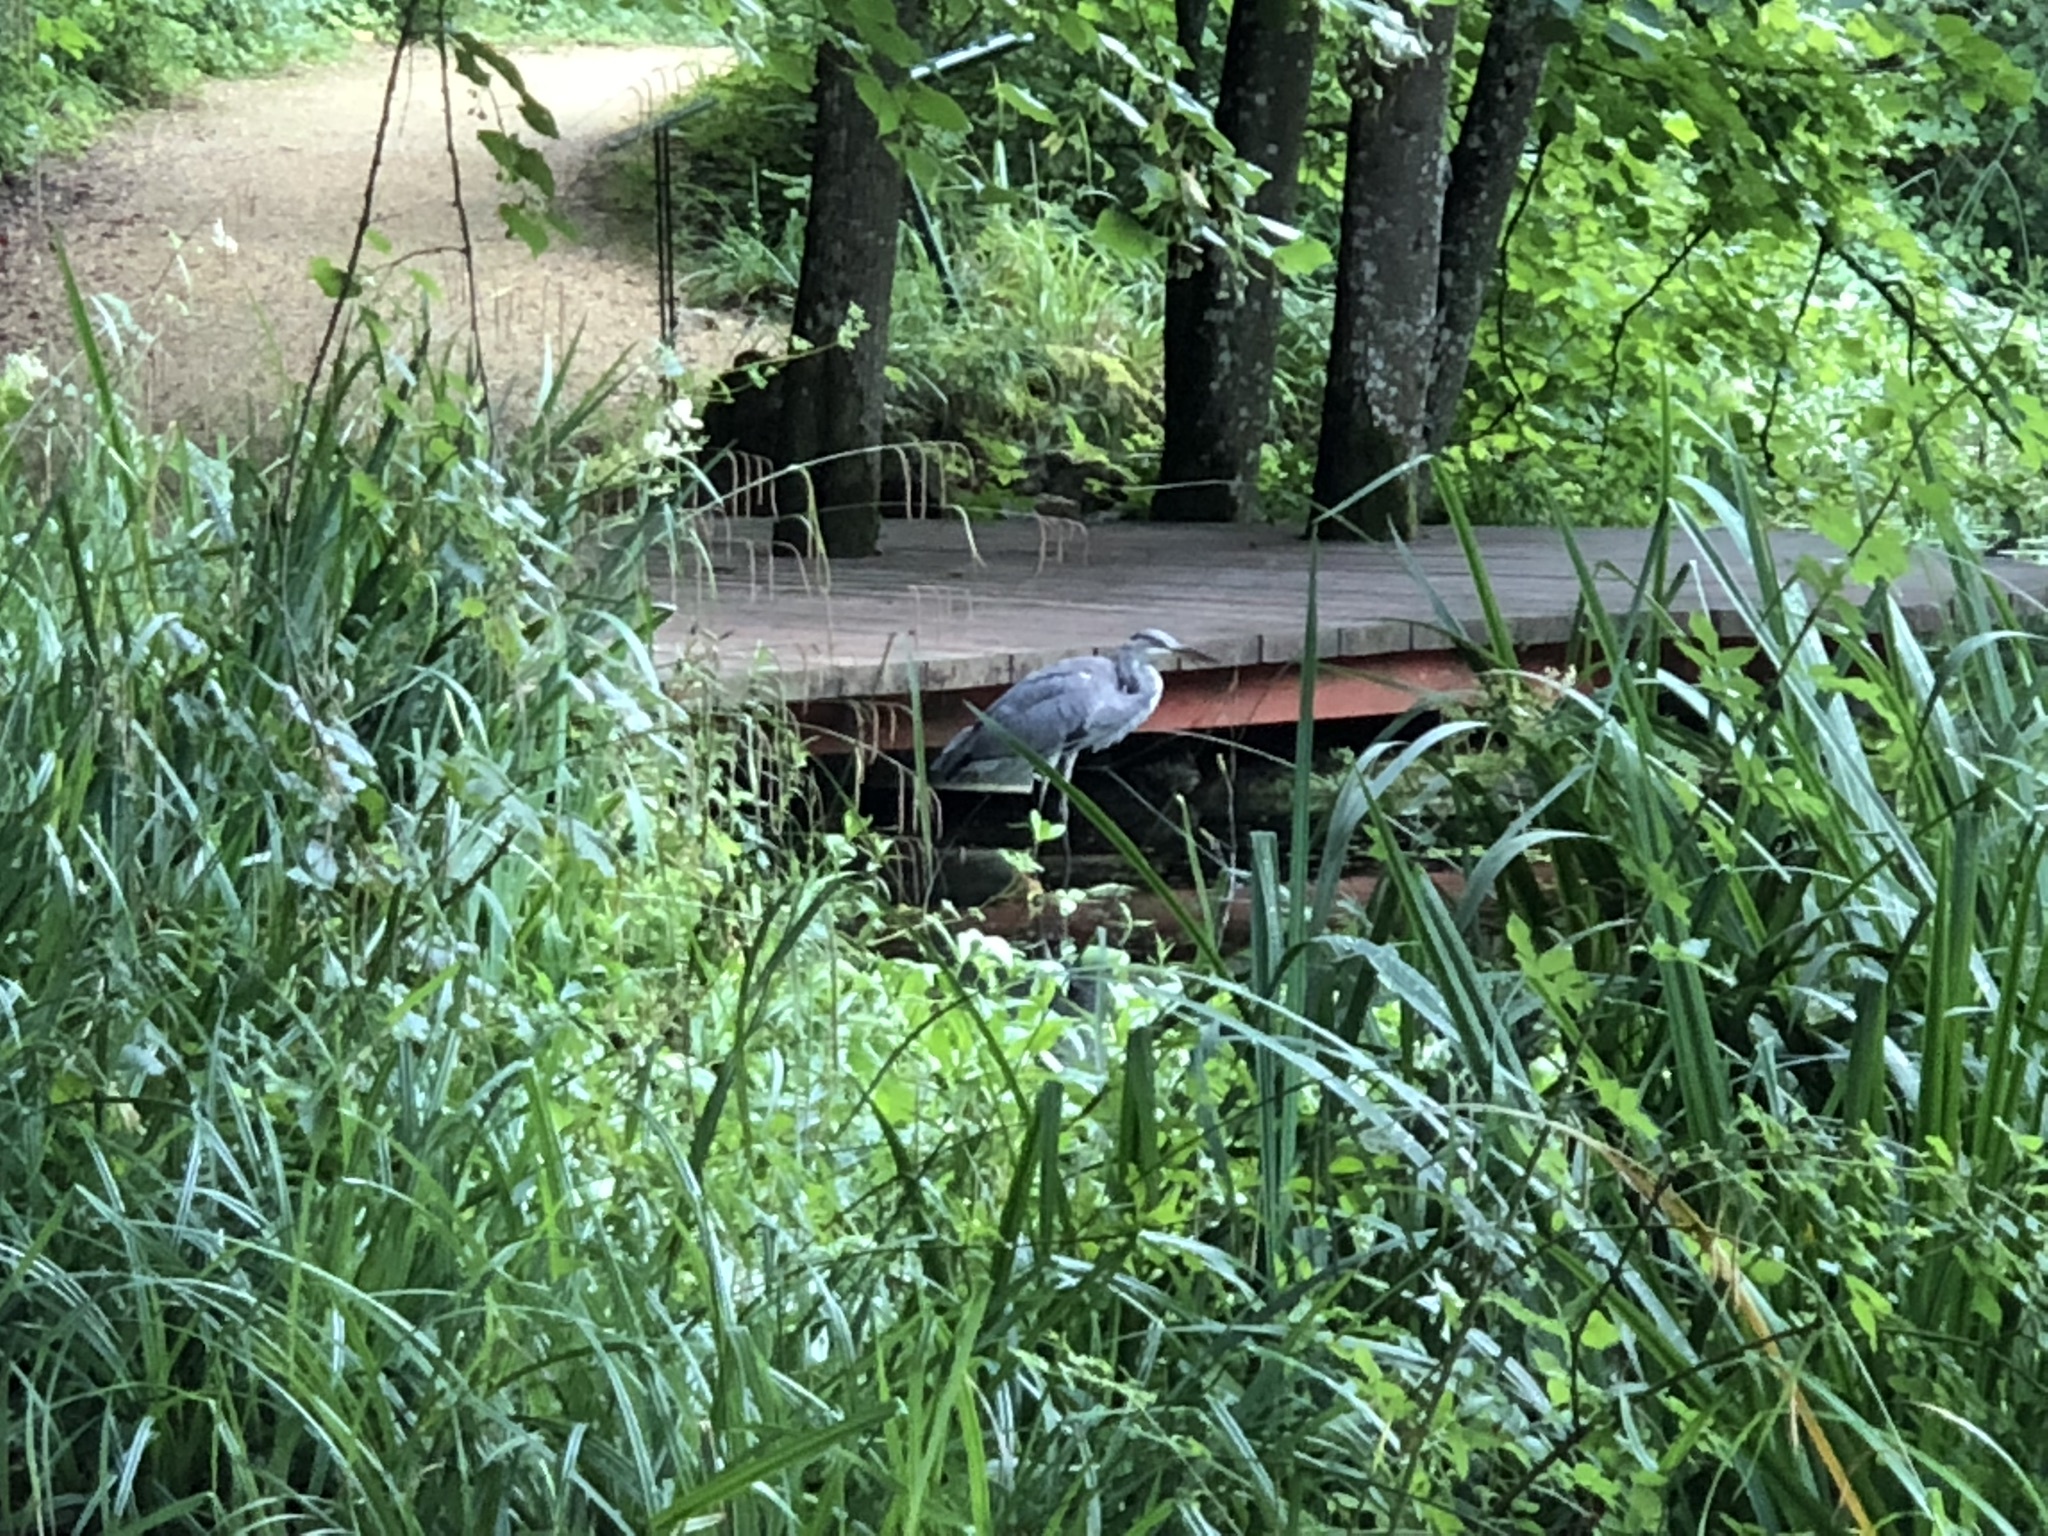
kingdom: Animalia
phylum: Chordata
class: Aves
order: Pelecaniformes
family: Ardeidae
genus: Ardea
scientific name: Ardea cinerea
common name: Grey heron
